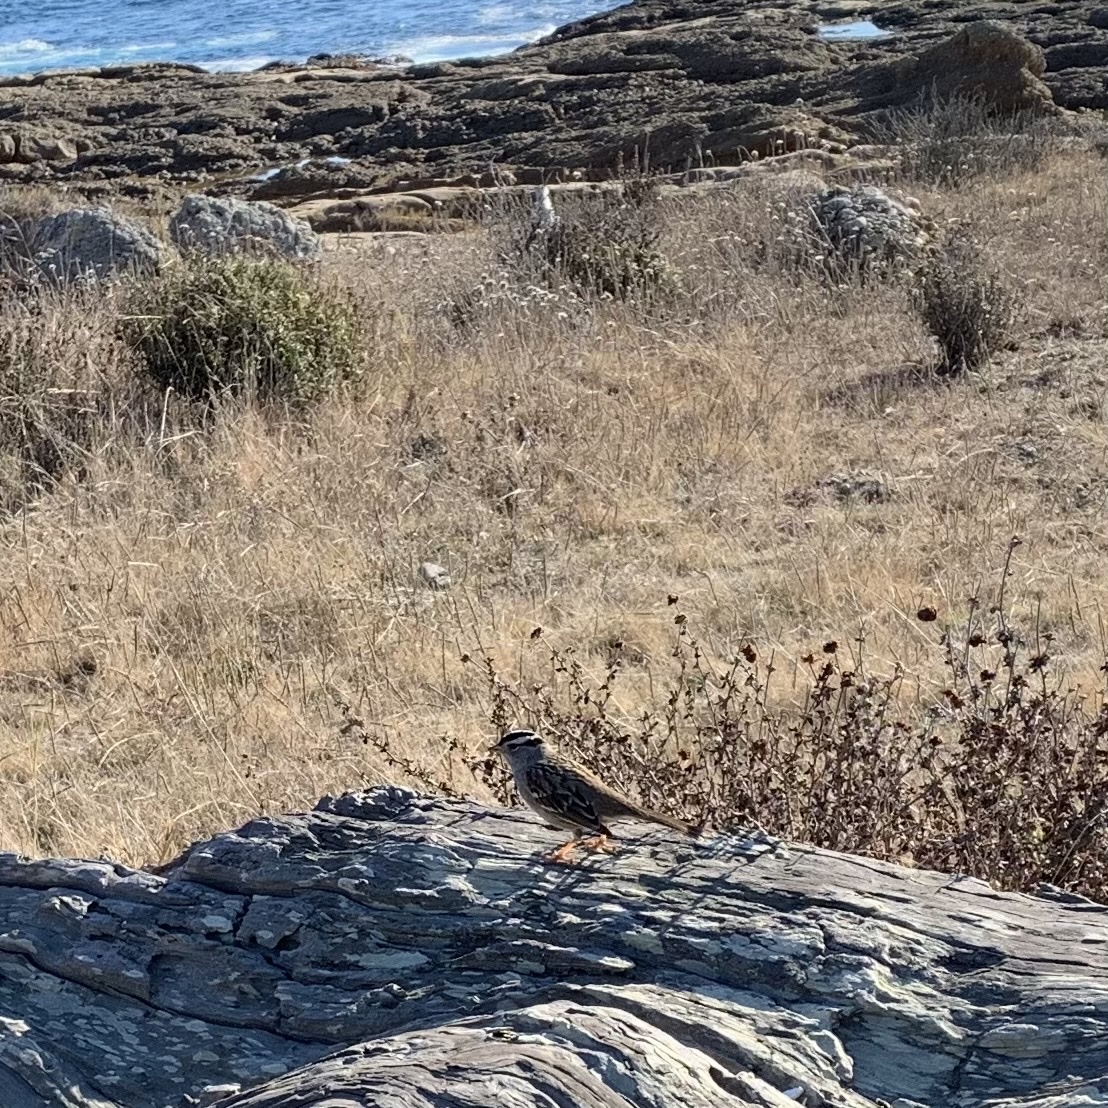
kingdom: Animalia
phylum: Chordata
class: Aves
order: Passeriformes
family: Passerellidae
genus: Zonotrichia
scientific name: Zonotrichia leucophrys
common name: White-crowned sparrow
